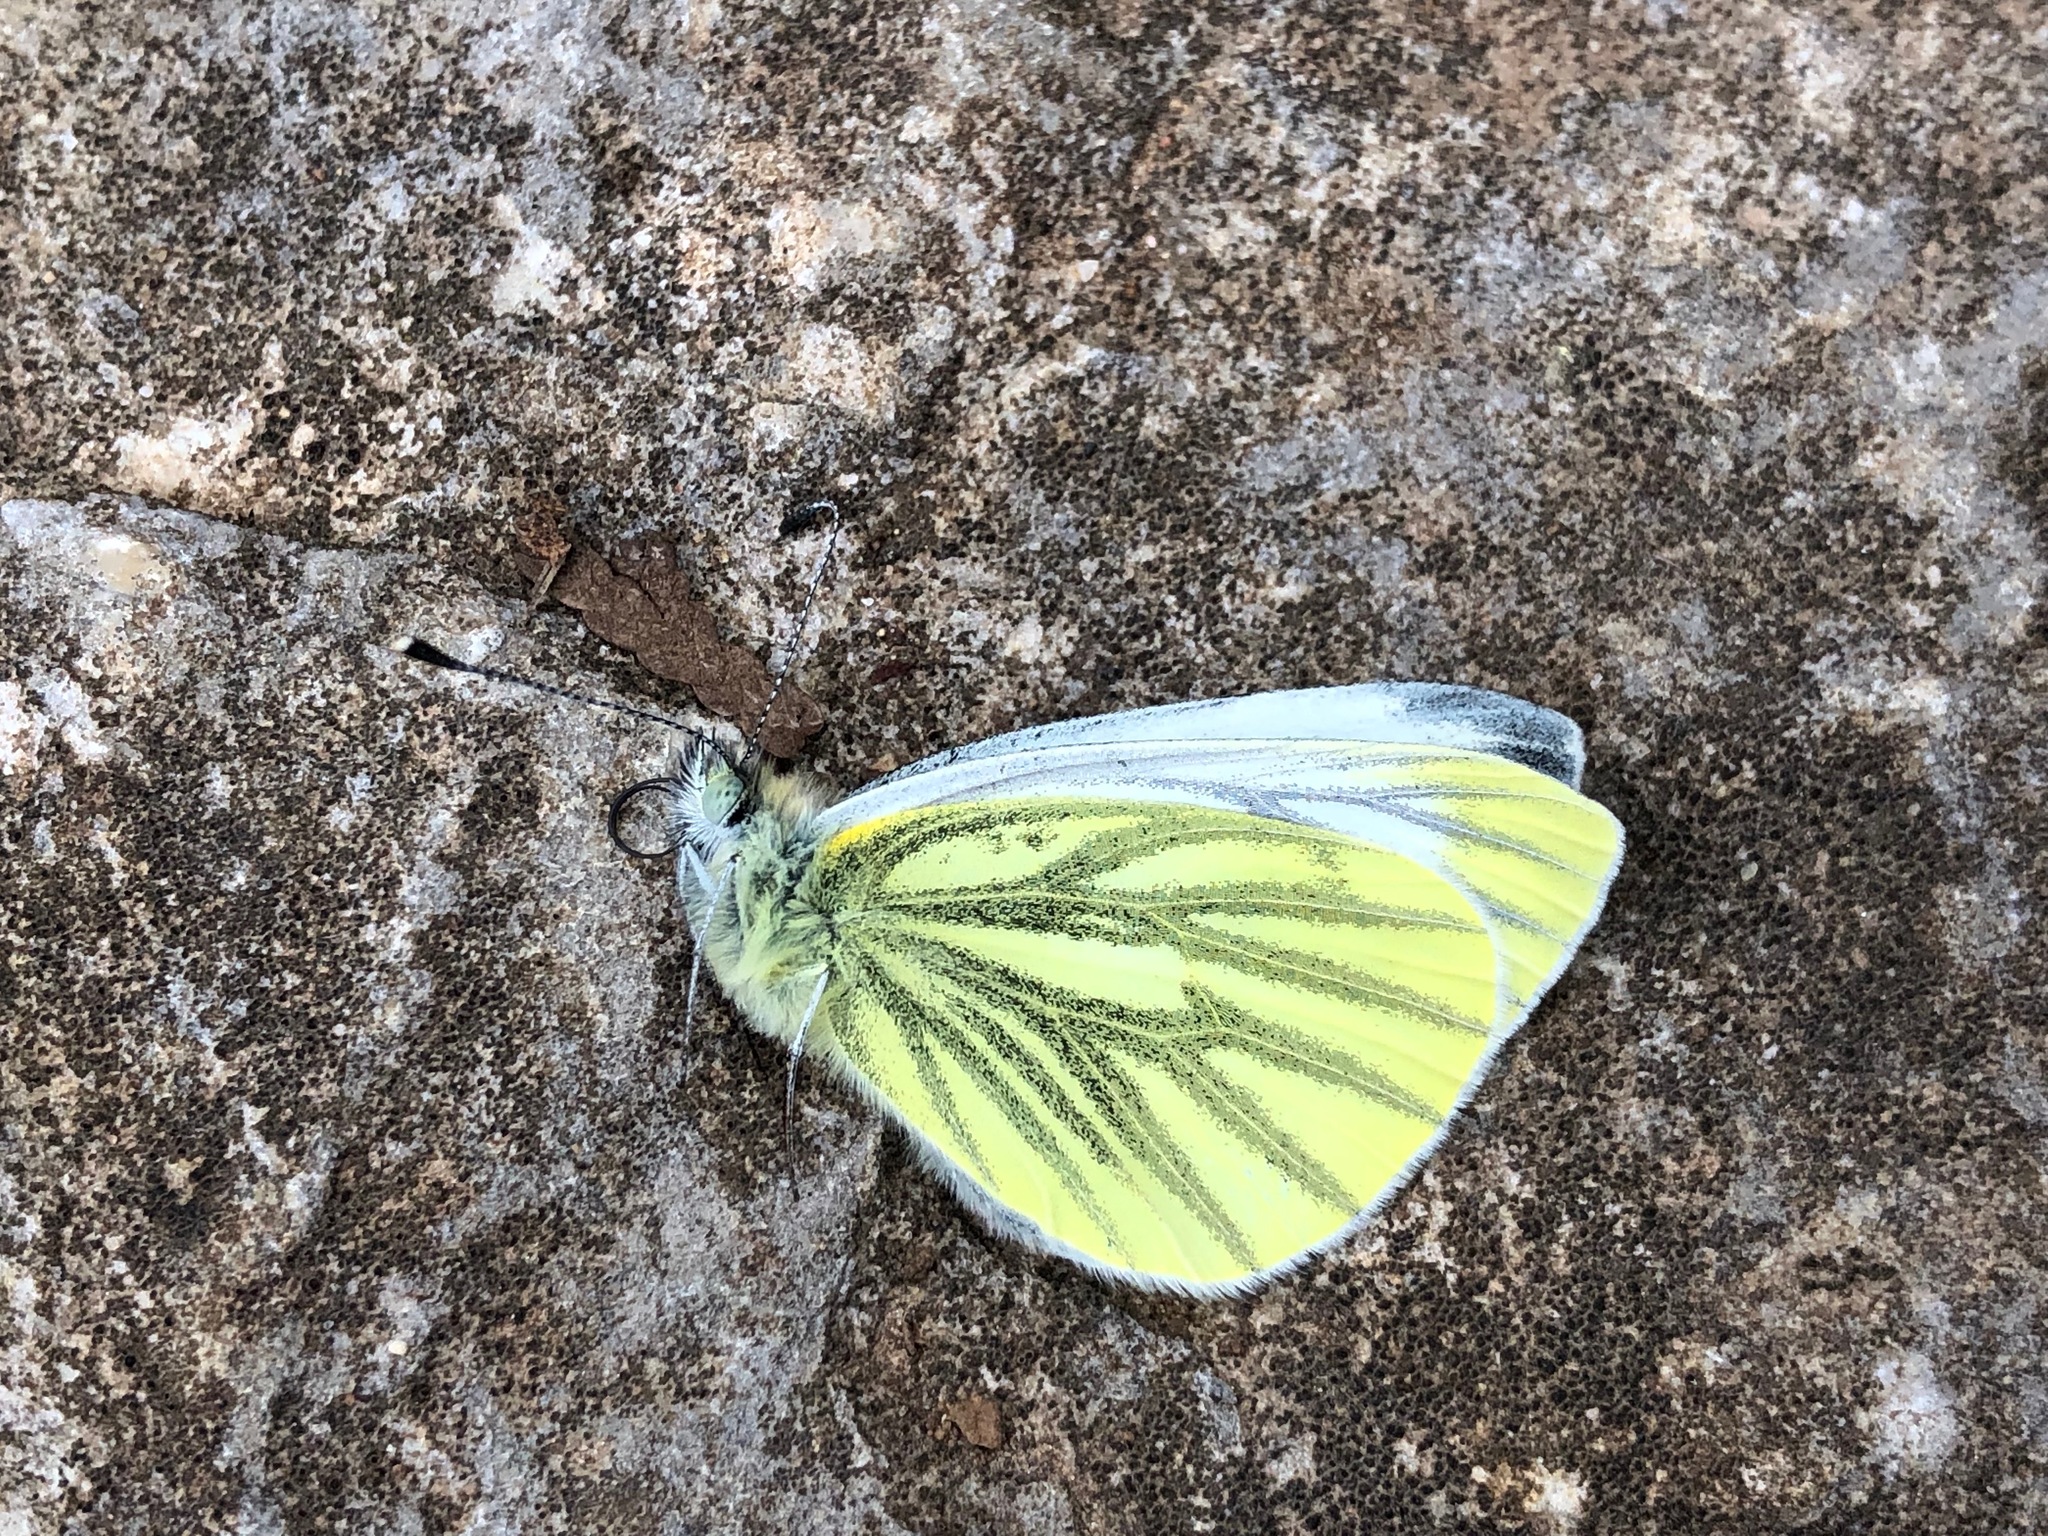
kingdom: Animalia
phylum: Arthropoda
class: Insecta
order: Lepidoptera
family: Pieridae
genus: Pieris
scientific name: Pieris napi
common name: Green-veined white
